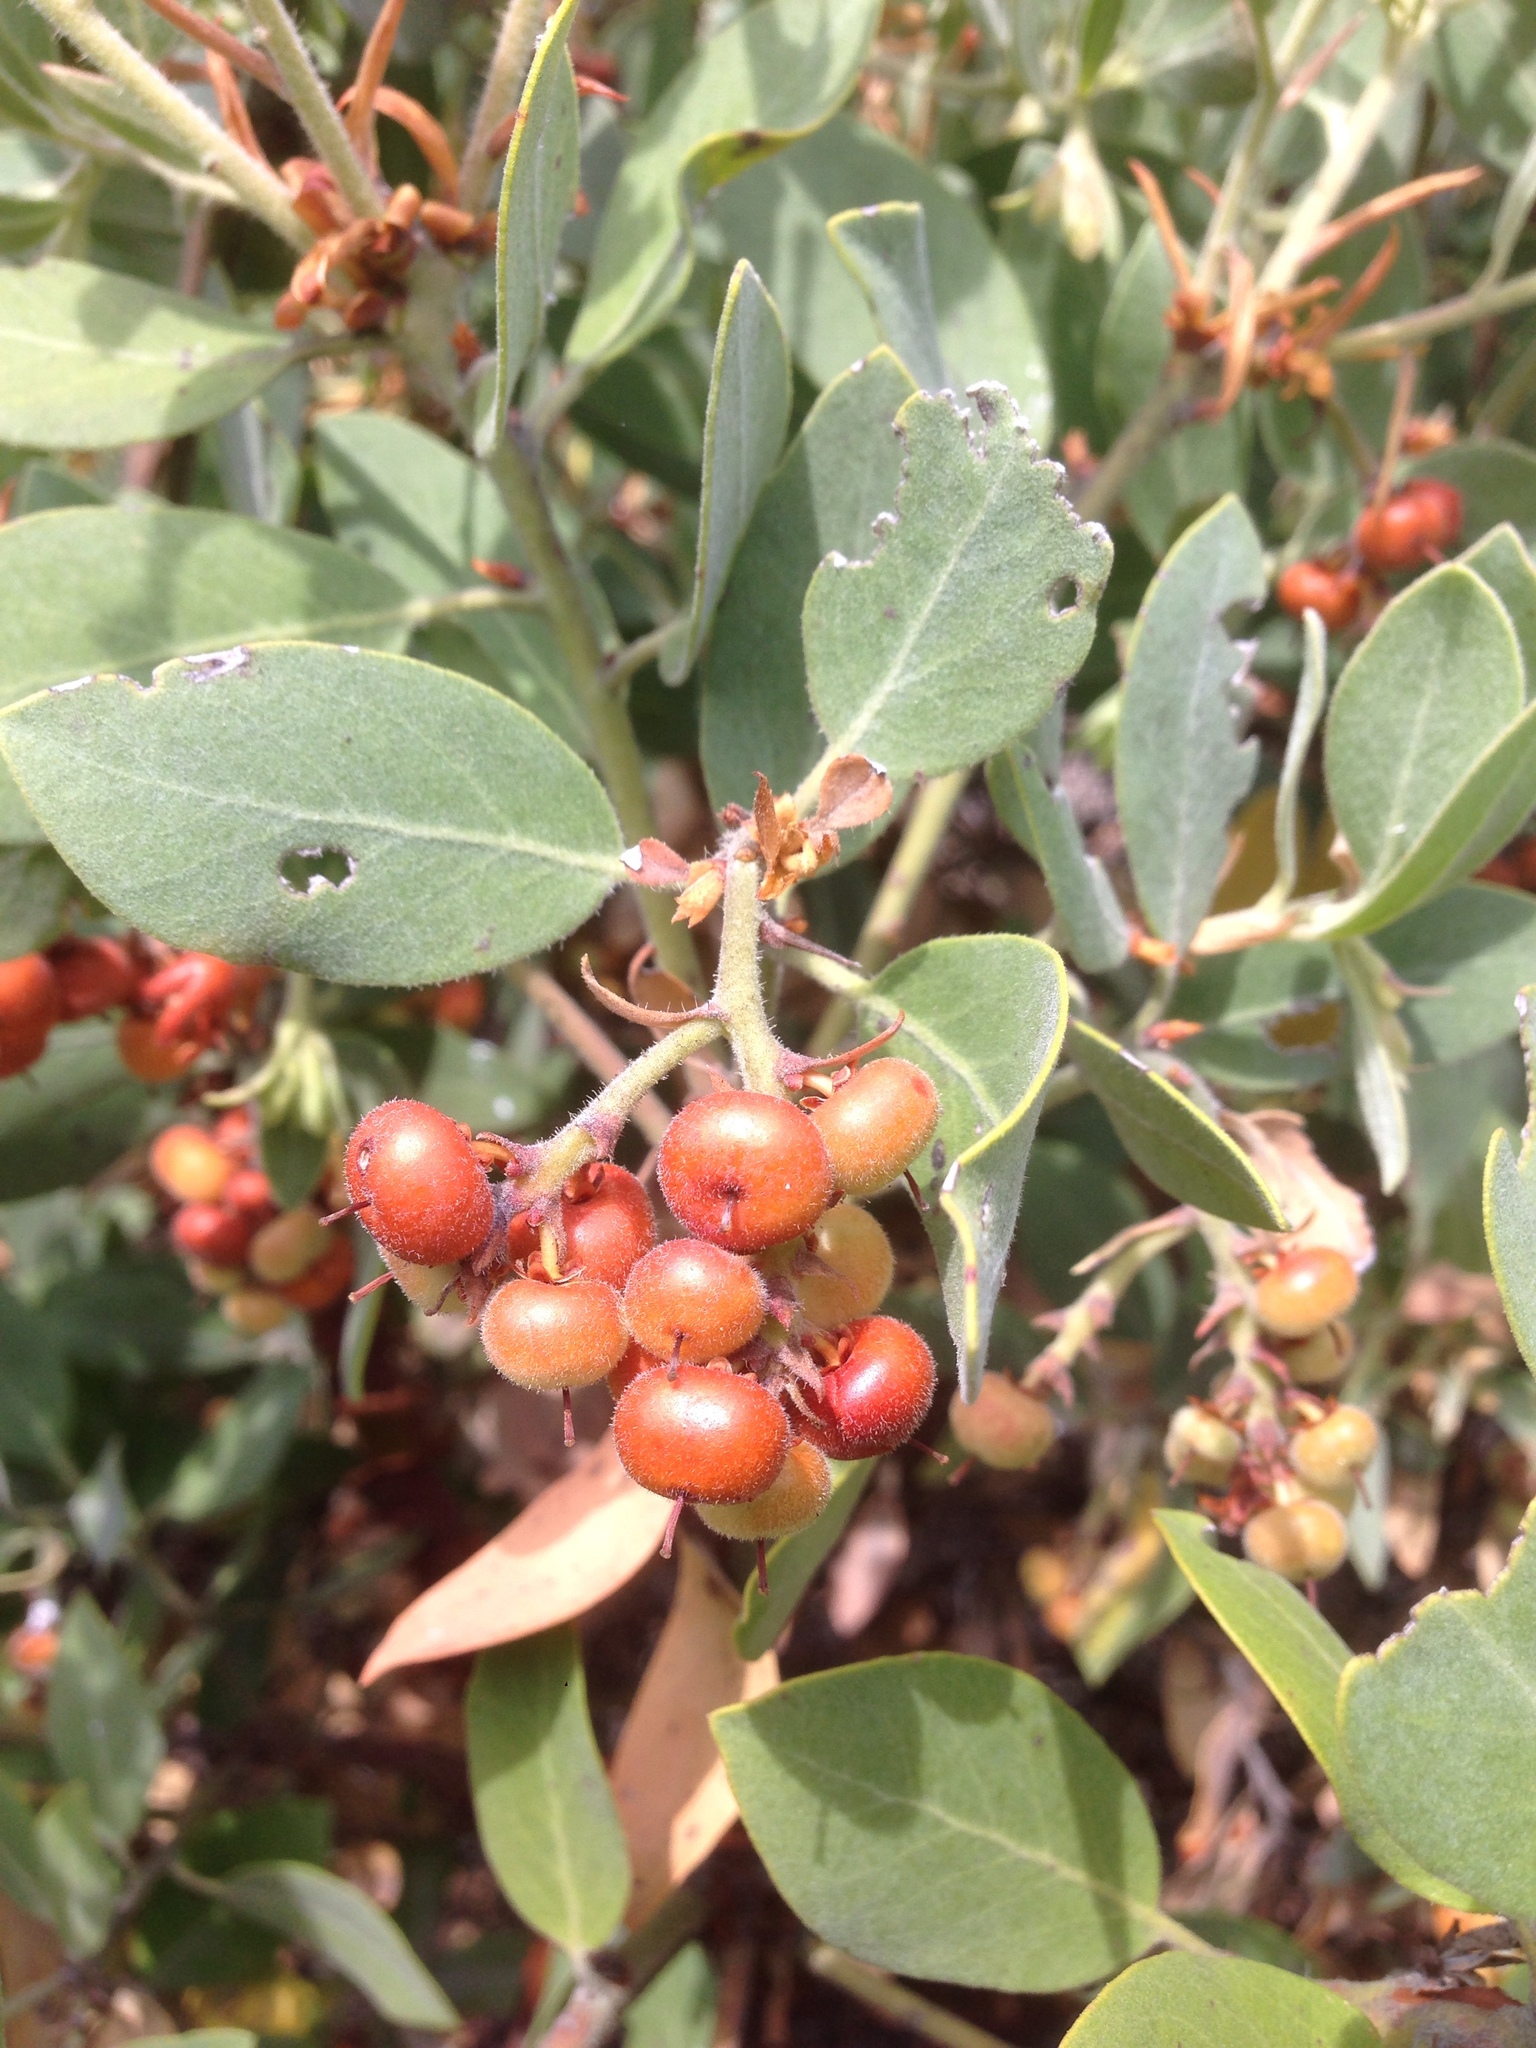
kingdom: Plantae
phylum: Tracheophyta
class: Magnoliopsida
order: Ericales
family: Ericaceae
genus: Arctostaphylos
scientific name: Arctostaphylos columbiana
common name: Bristly bearberry
